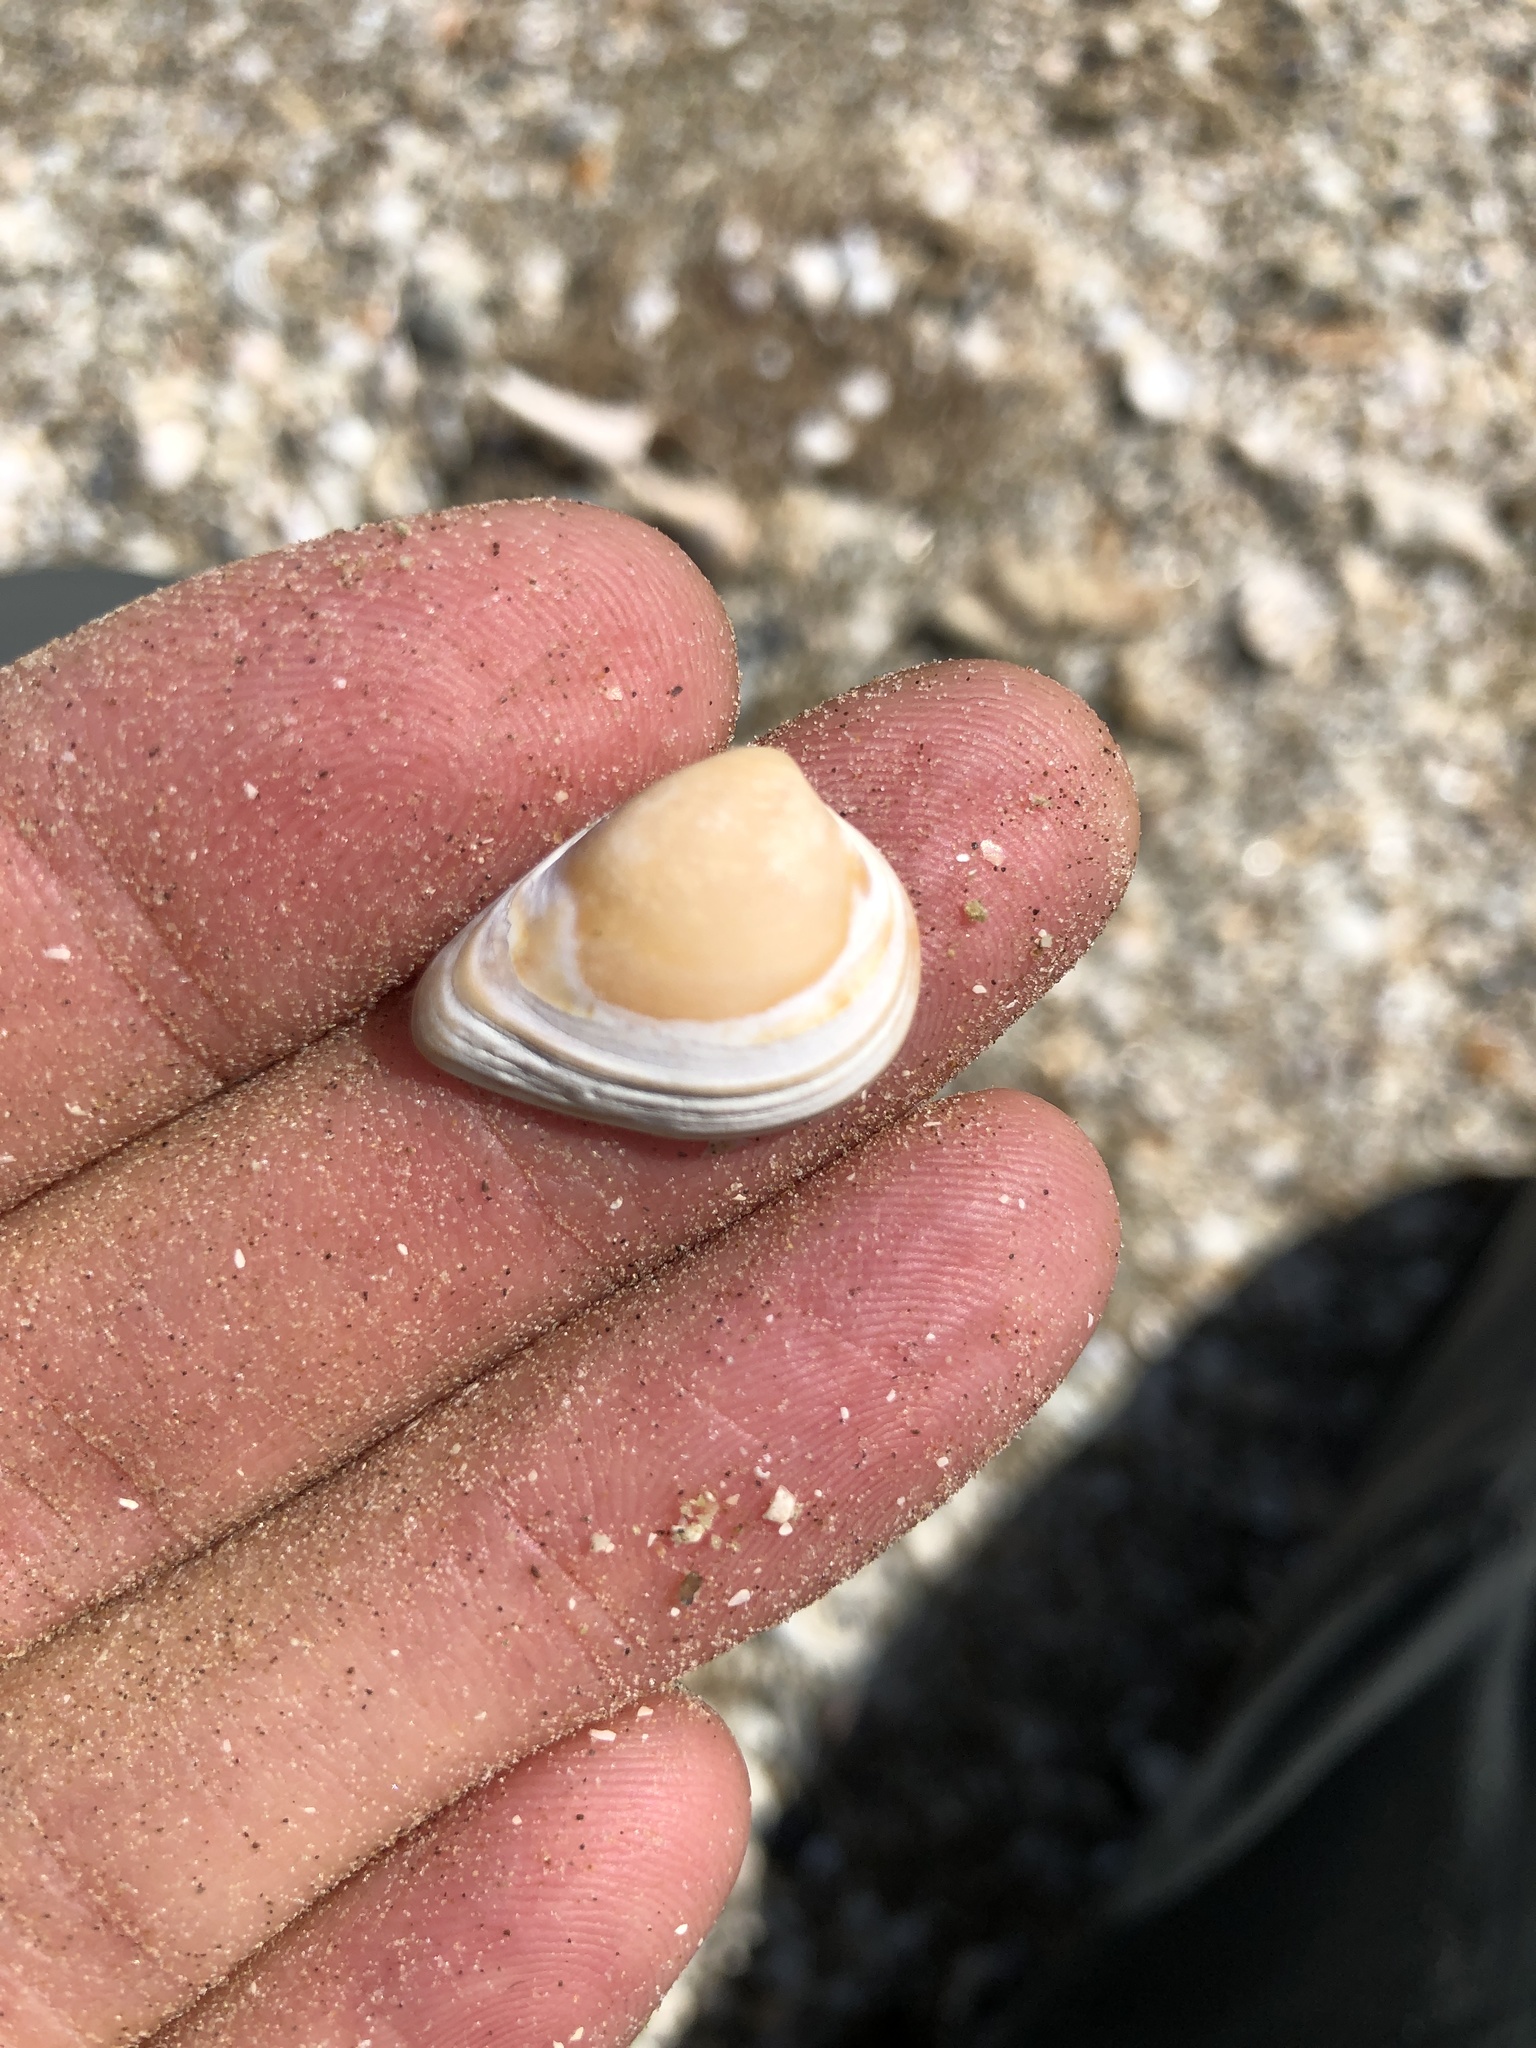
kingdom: Animalia
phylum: Mollusca
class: Bivalvia
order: Venerida
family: Mactridae
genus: Rangia
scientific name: Rangia flexuosa
